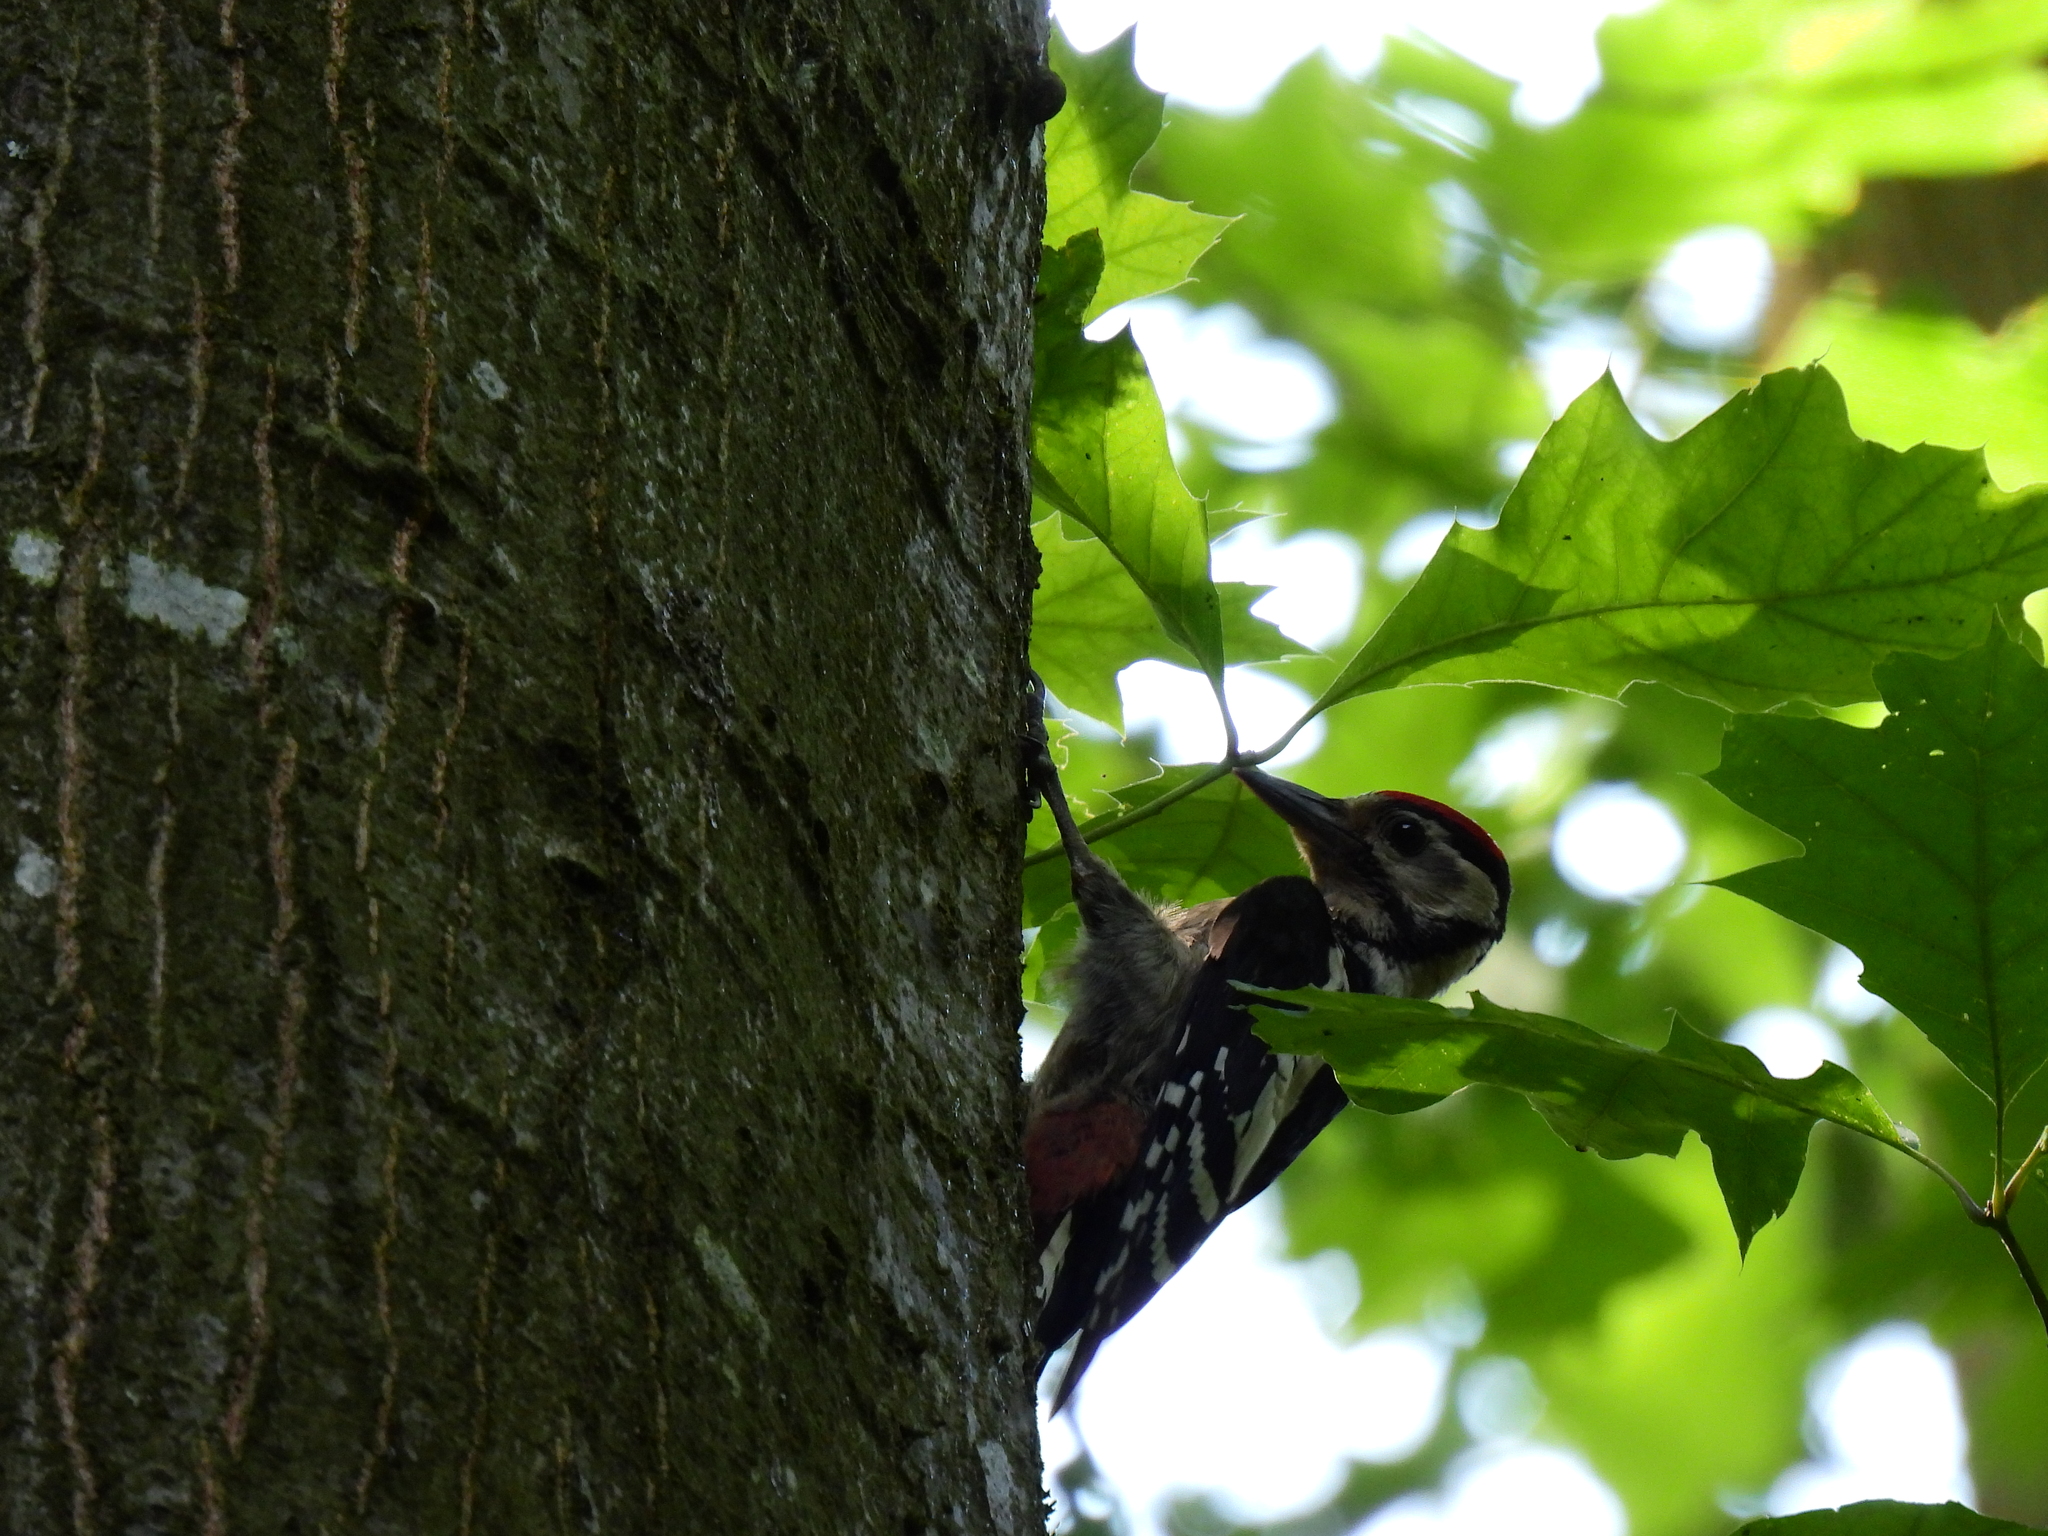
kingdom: Animalia
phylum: Chordata
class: Aves
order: Piciformes
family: Picidae
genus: Dendrocopos
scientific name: Dendrocopos major
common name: Great spotted woodpecker
